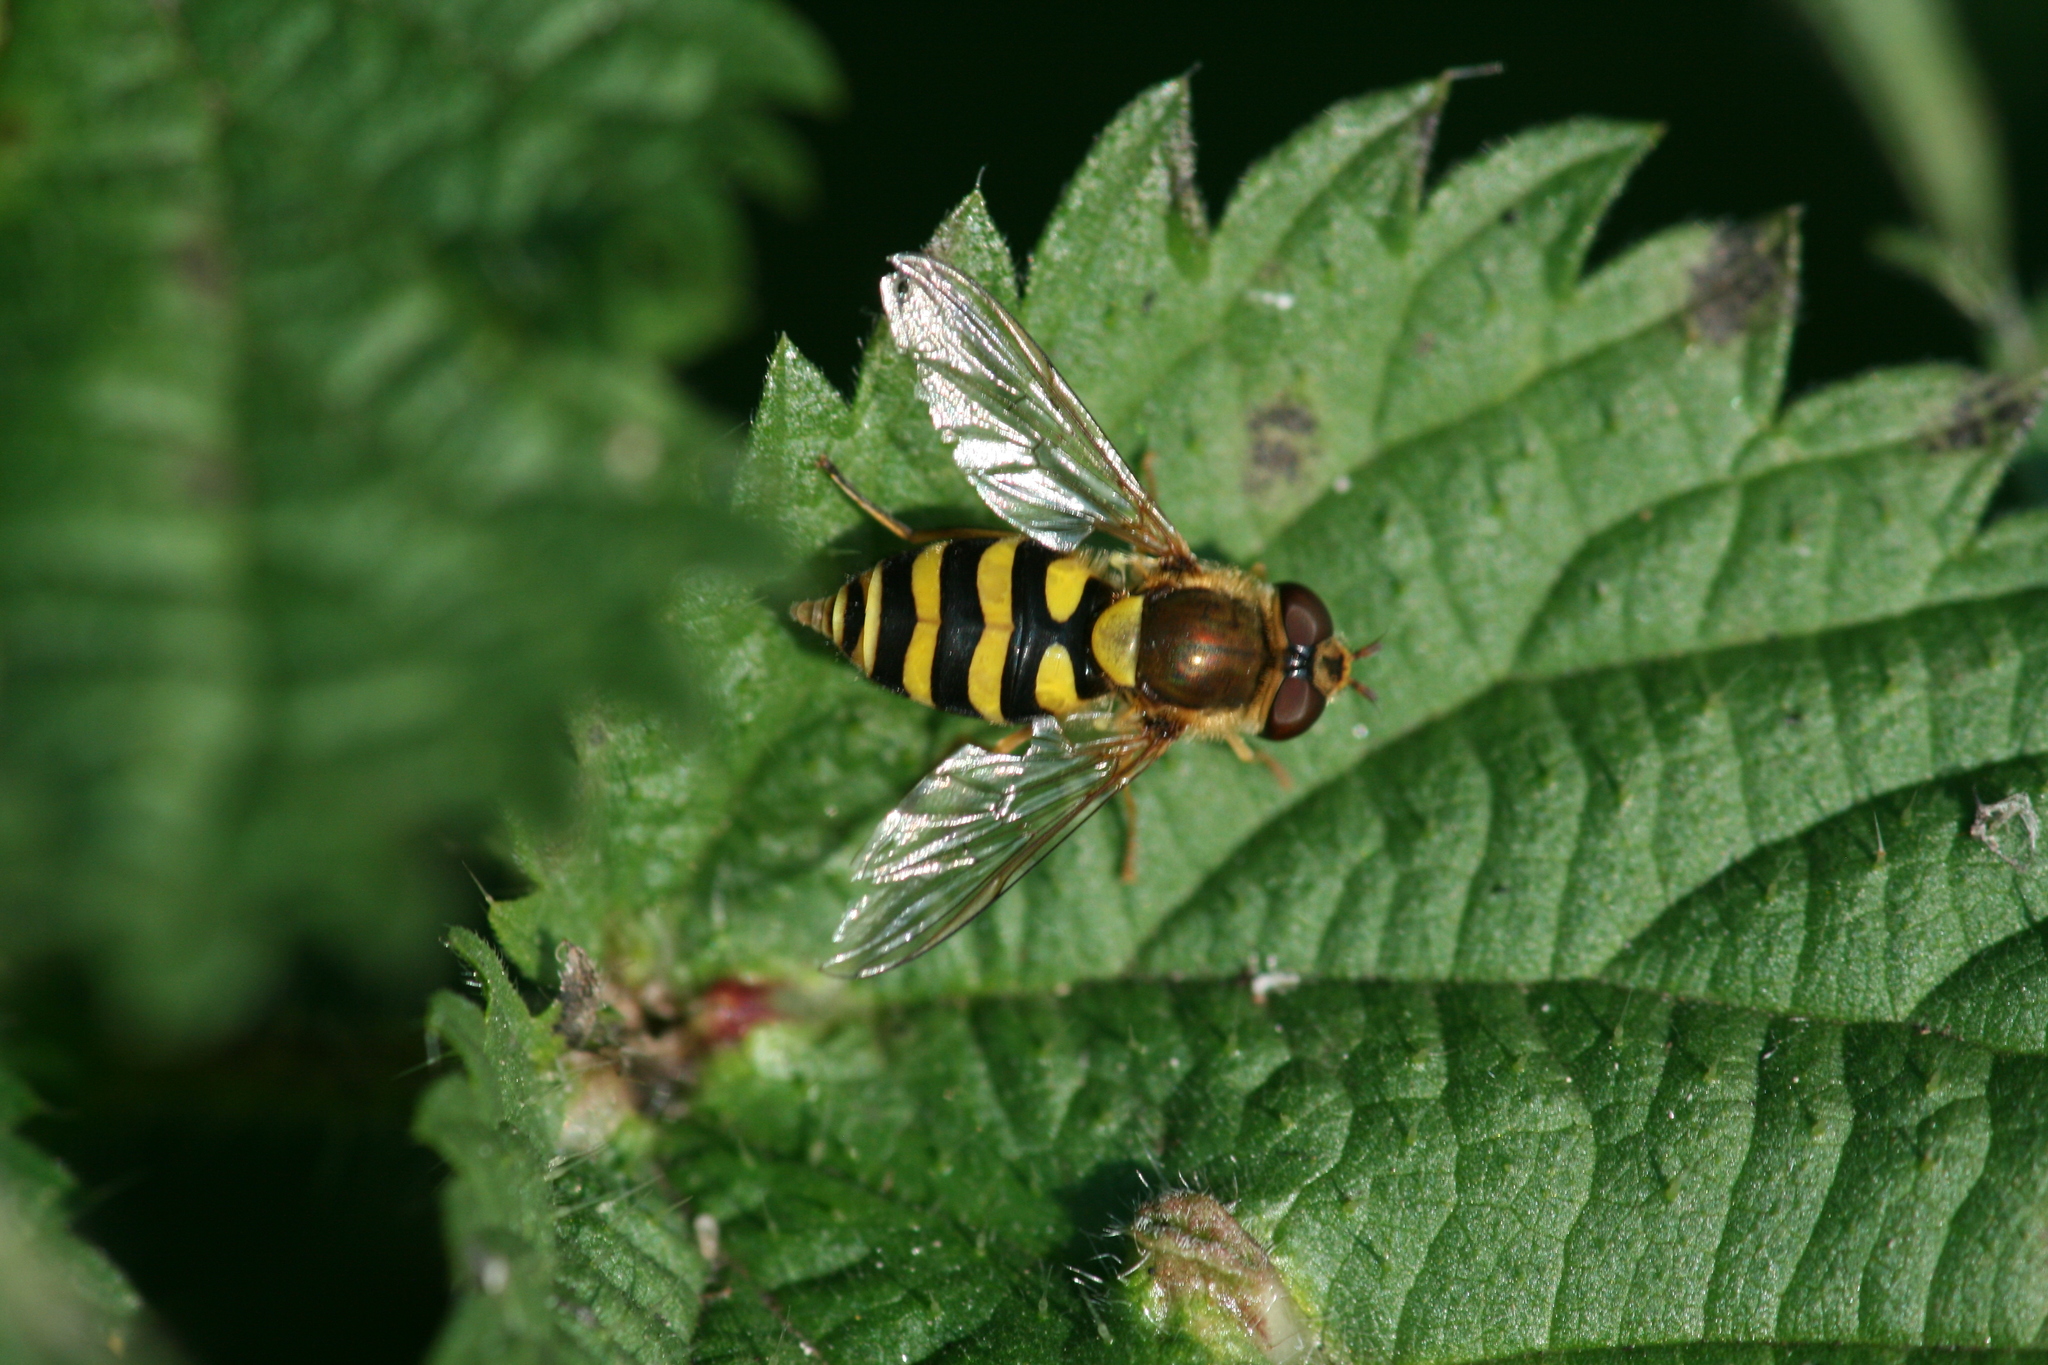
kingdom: Animalia
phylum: Arthropoda
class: Insecta
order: Diptera
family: Syrphidae
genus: Syrphus
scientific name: Syrphus
